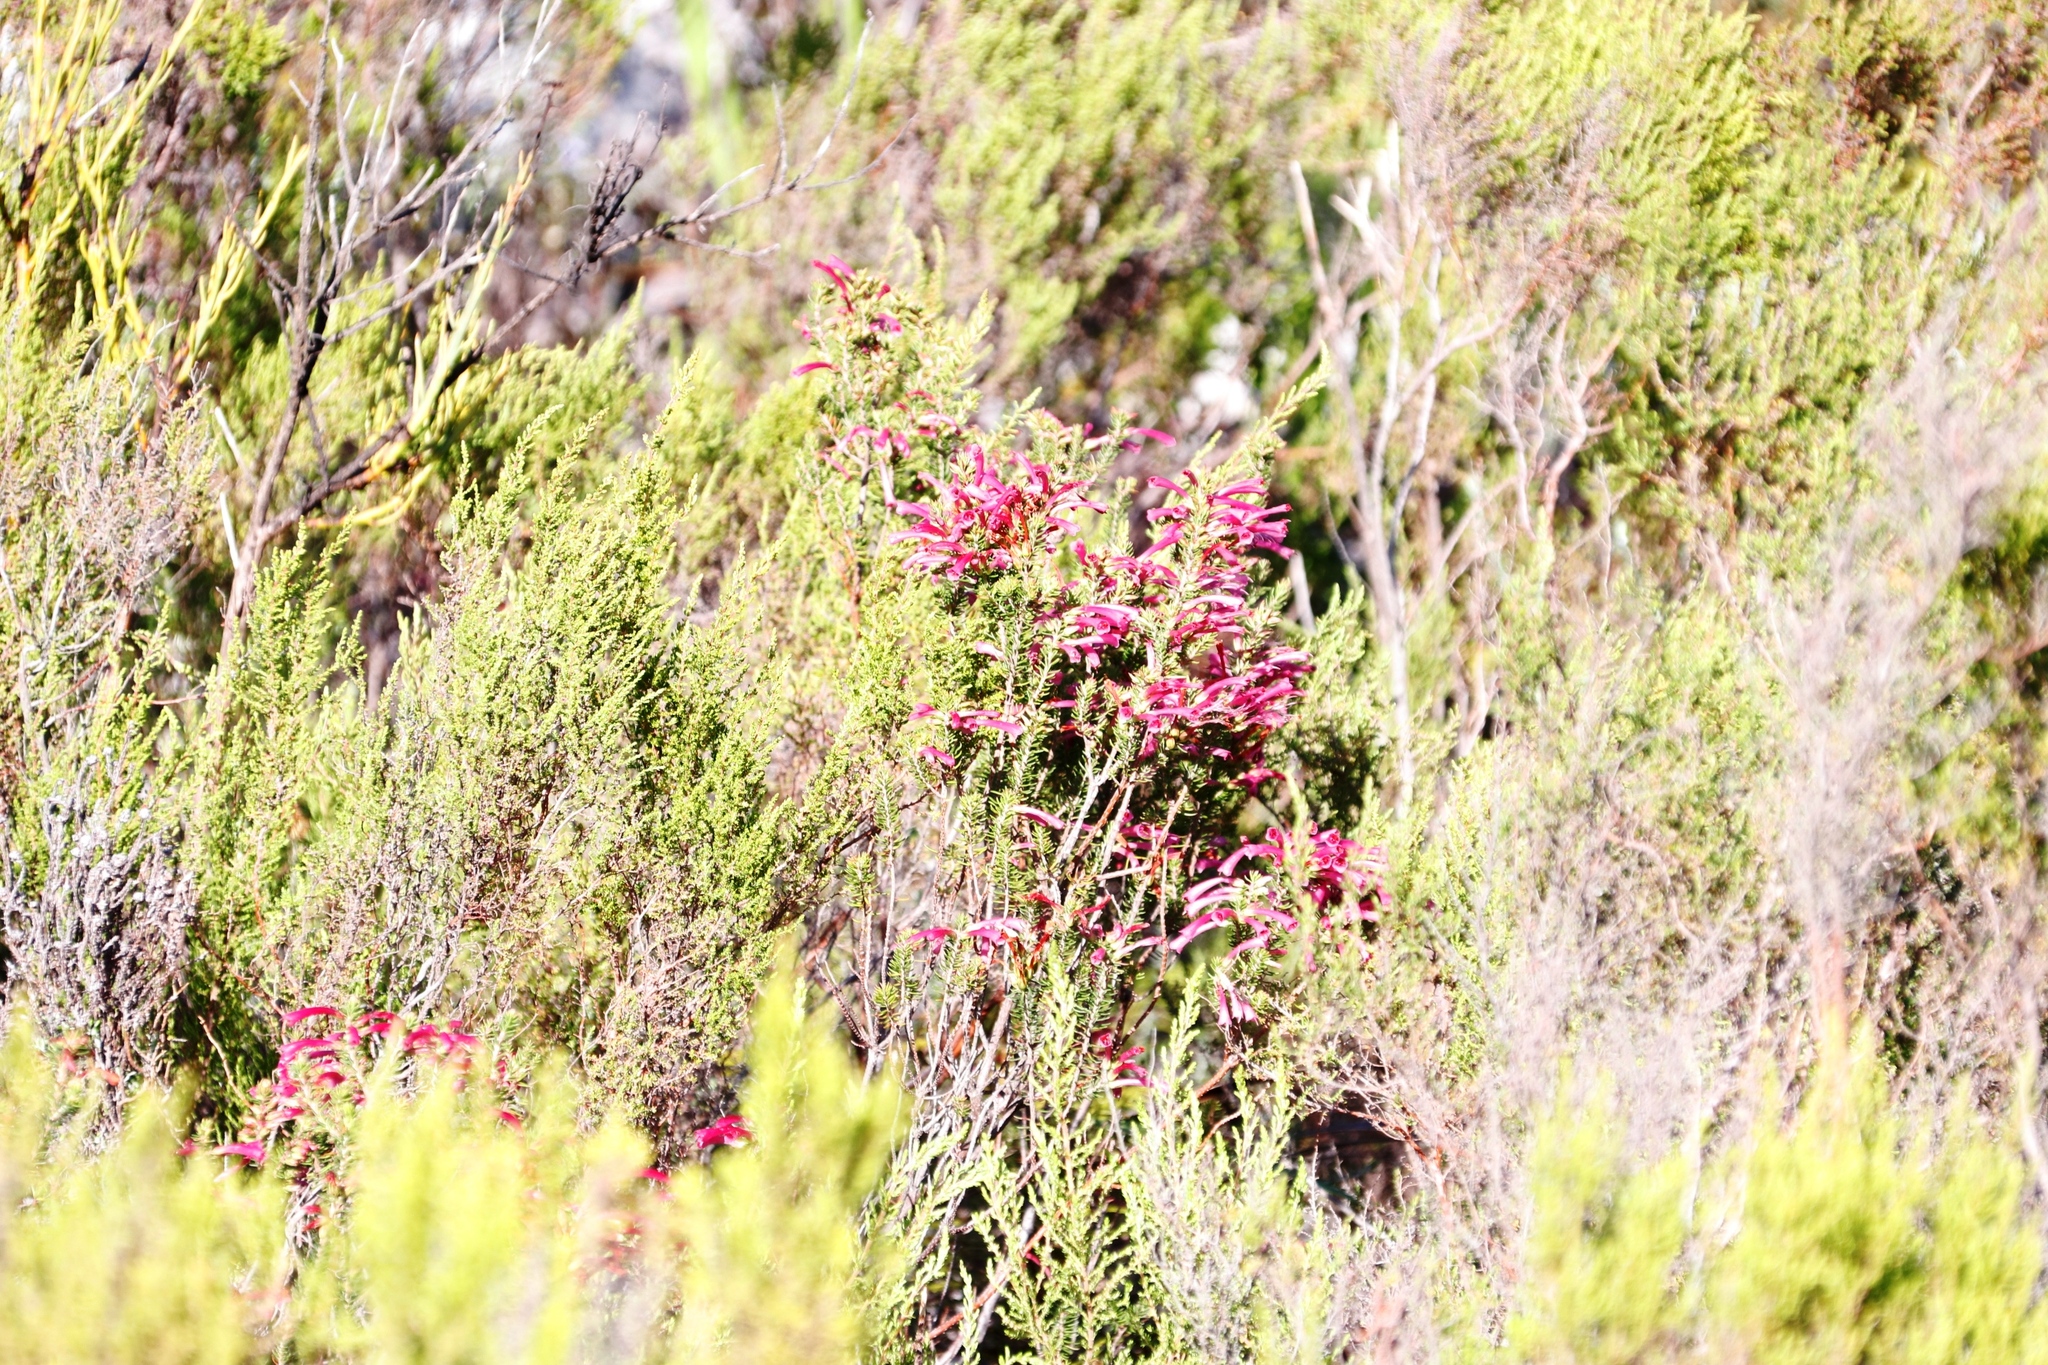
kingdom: Plantae
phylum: Tracheophyta
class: Magnoliopsida
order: Ericales
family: Ericaceae
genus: Erica
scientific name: Erica abietina
